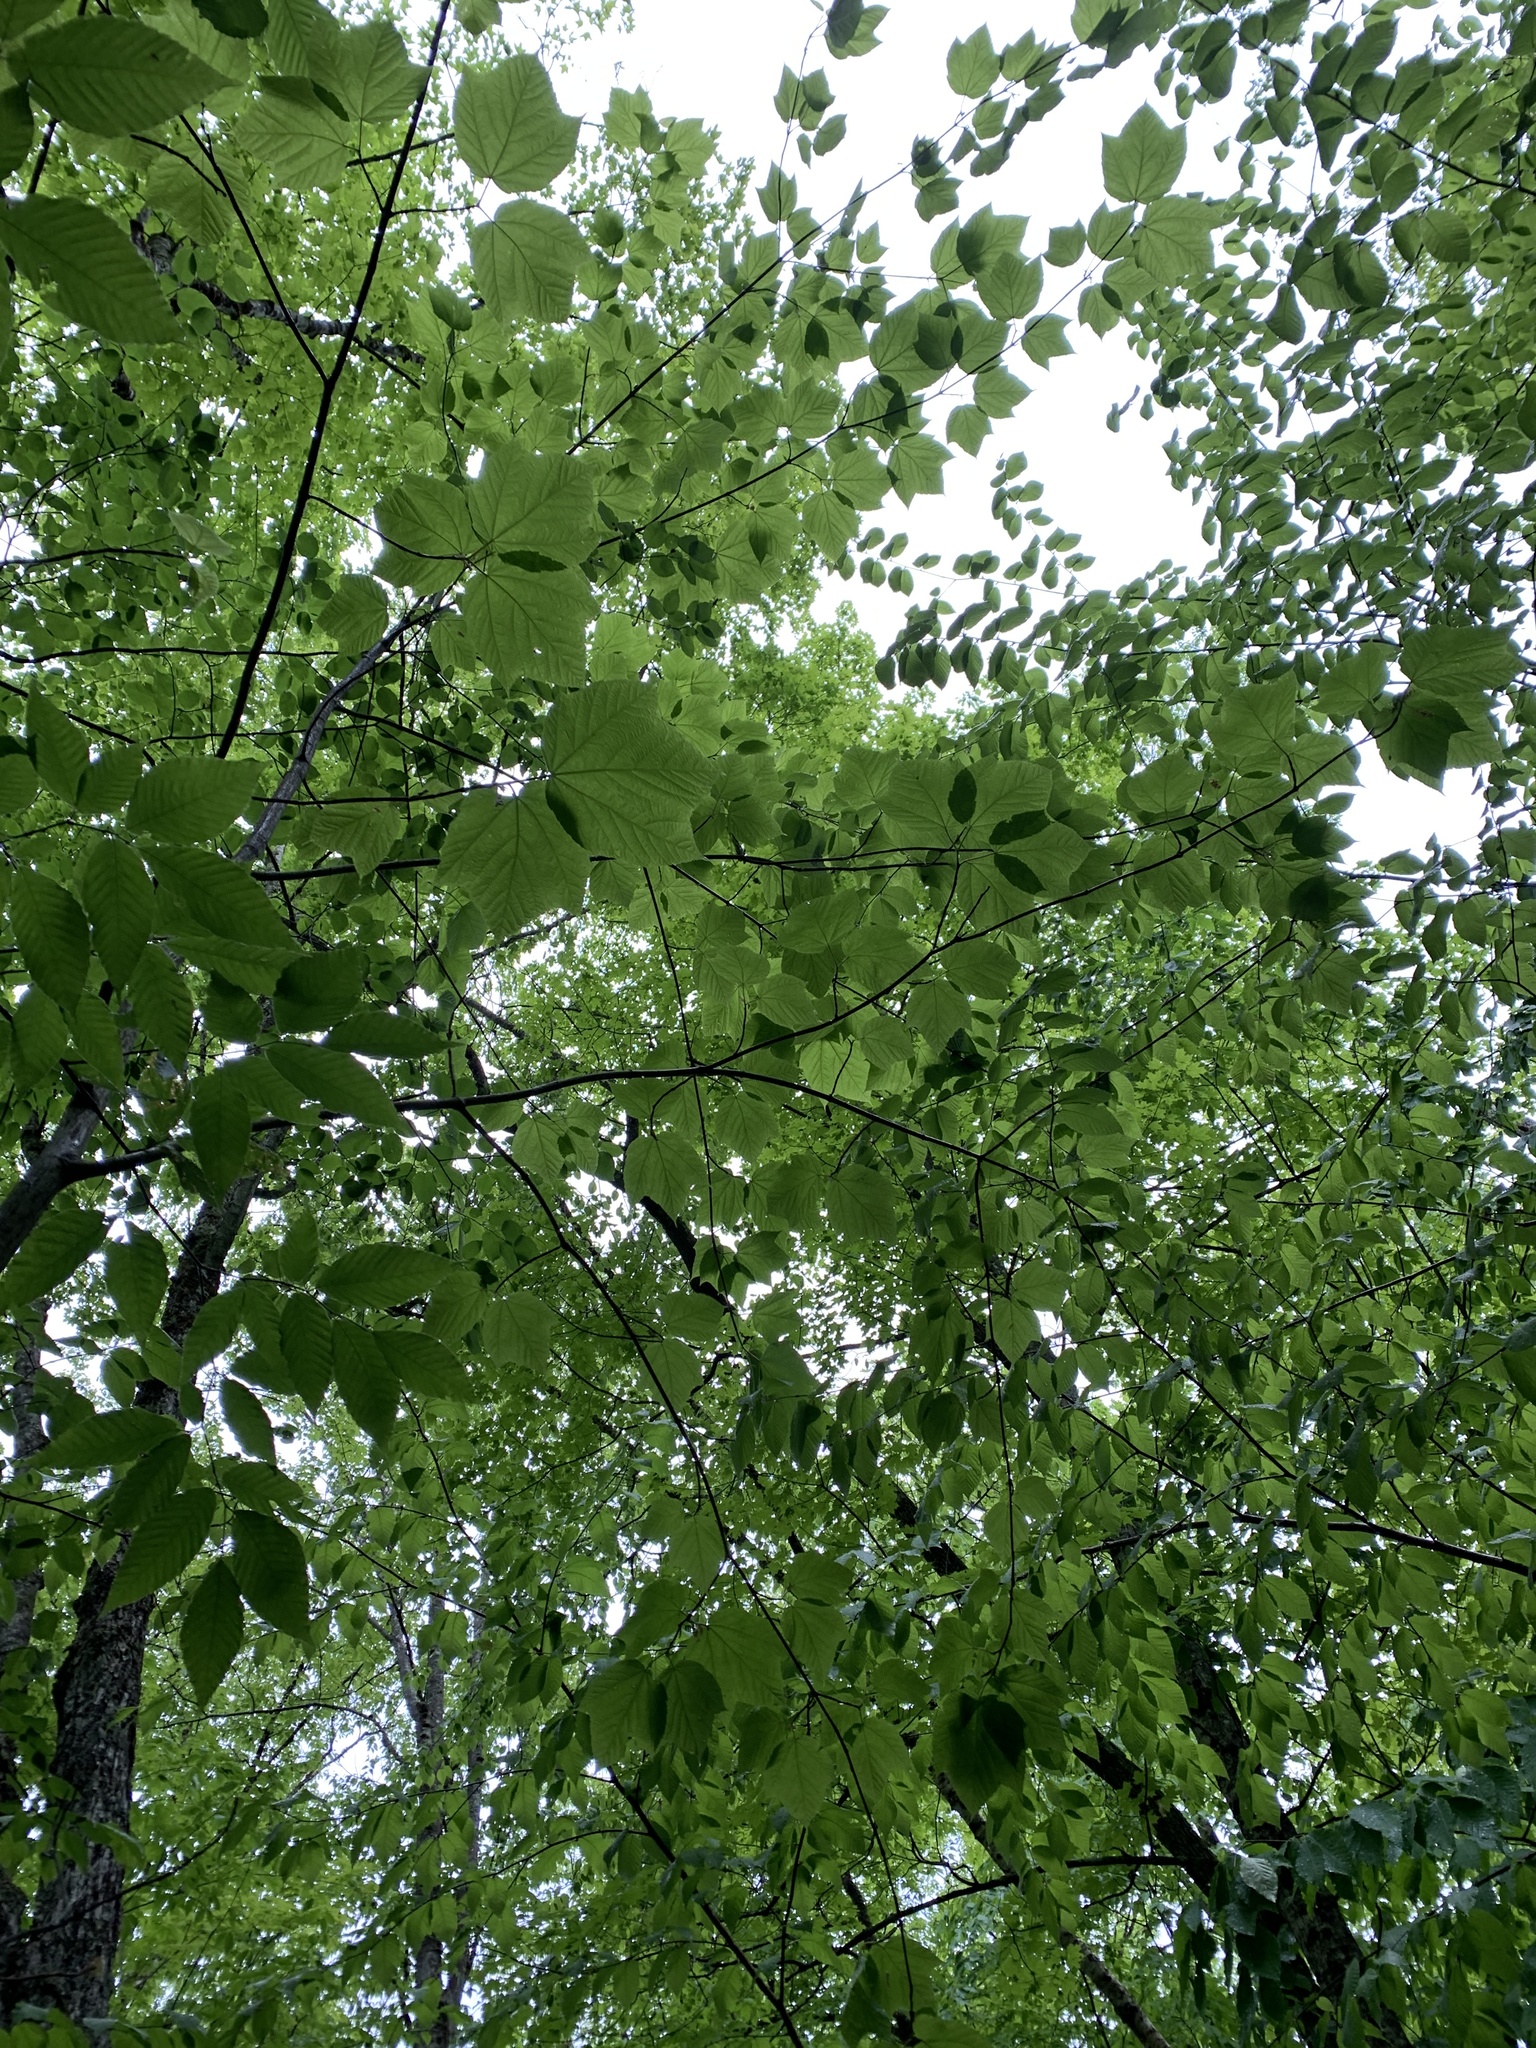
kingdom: Plantae
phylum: Tracheophyta
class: Magnoliopsida
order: Sapindales
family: Sapindaceae
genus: Acer
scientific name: Acer pensylvanicum
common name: Moosewood
